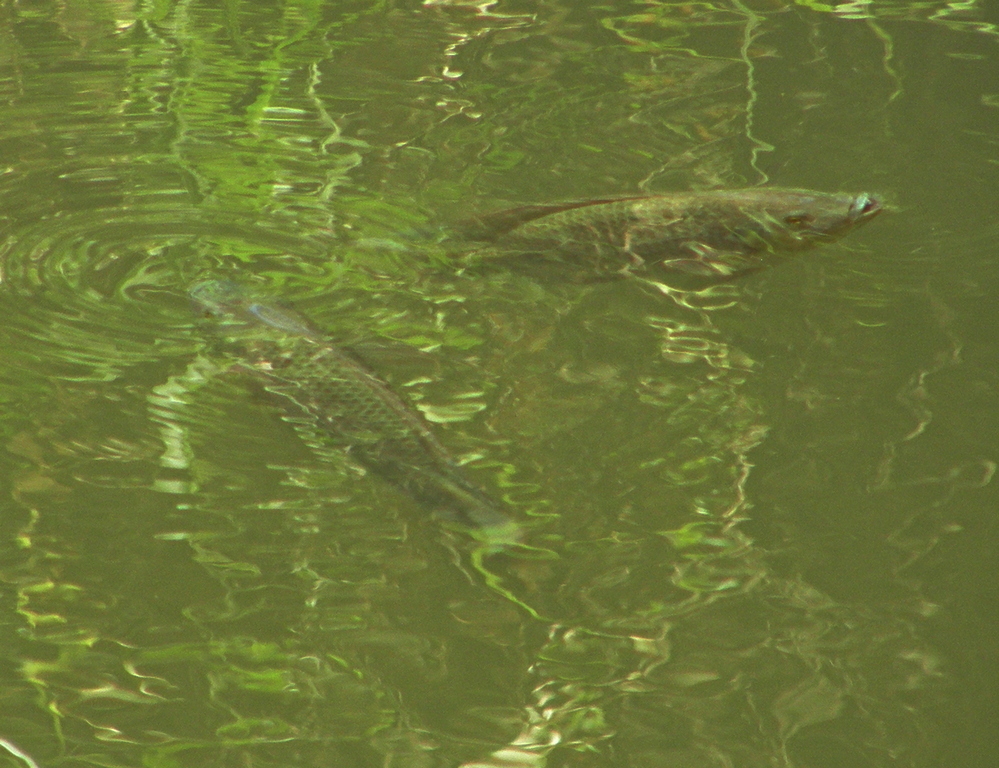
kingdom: Animalia
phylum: Chordata
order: Perciformes
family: Cichlidae
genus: Oreochromis
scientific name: Oreochromis mossambicus
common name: Mozambique tilapia
